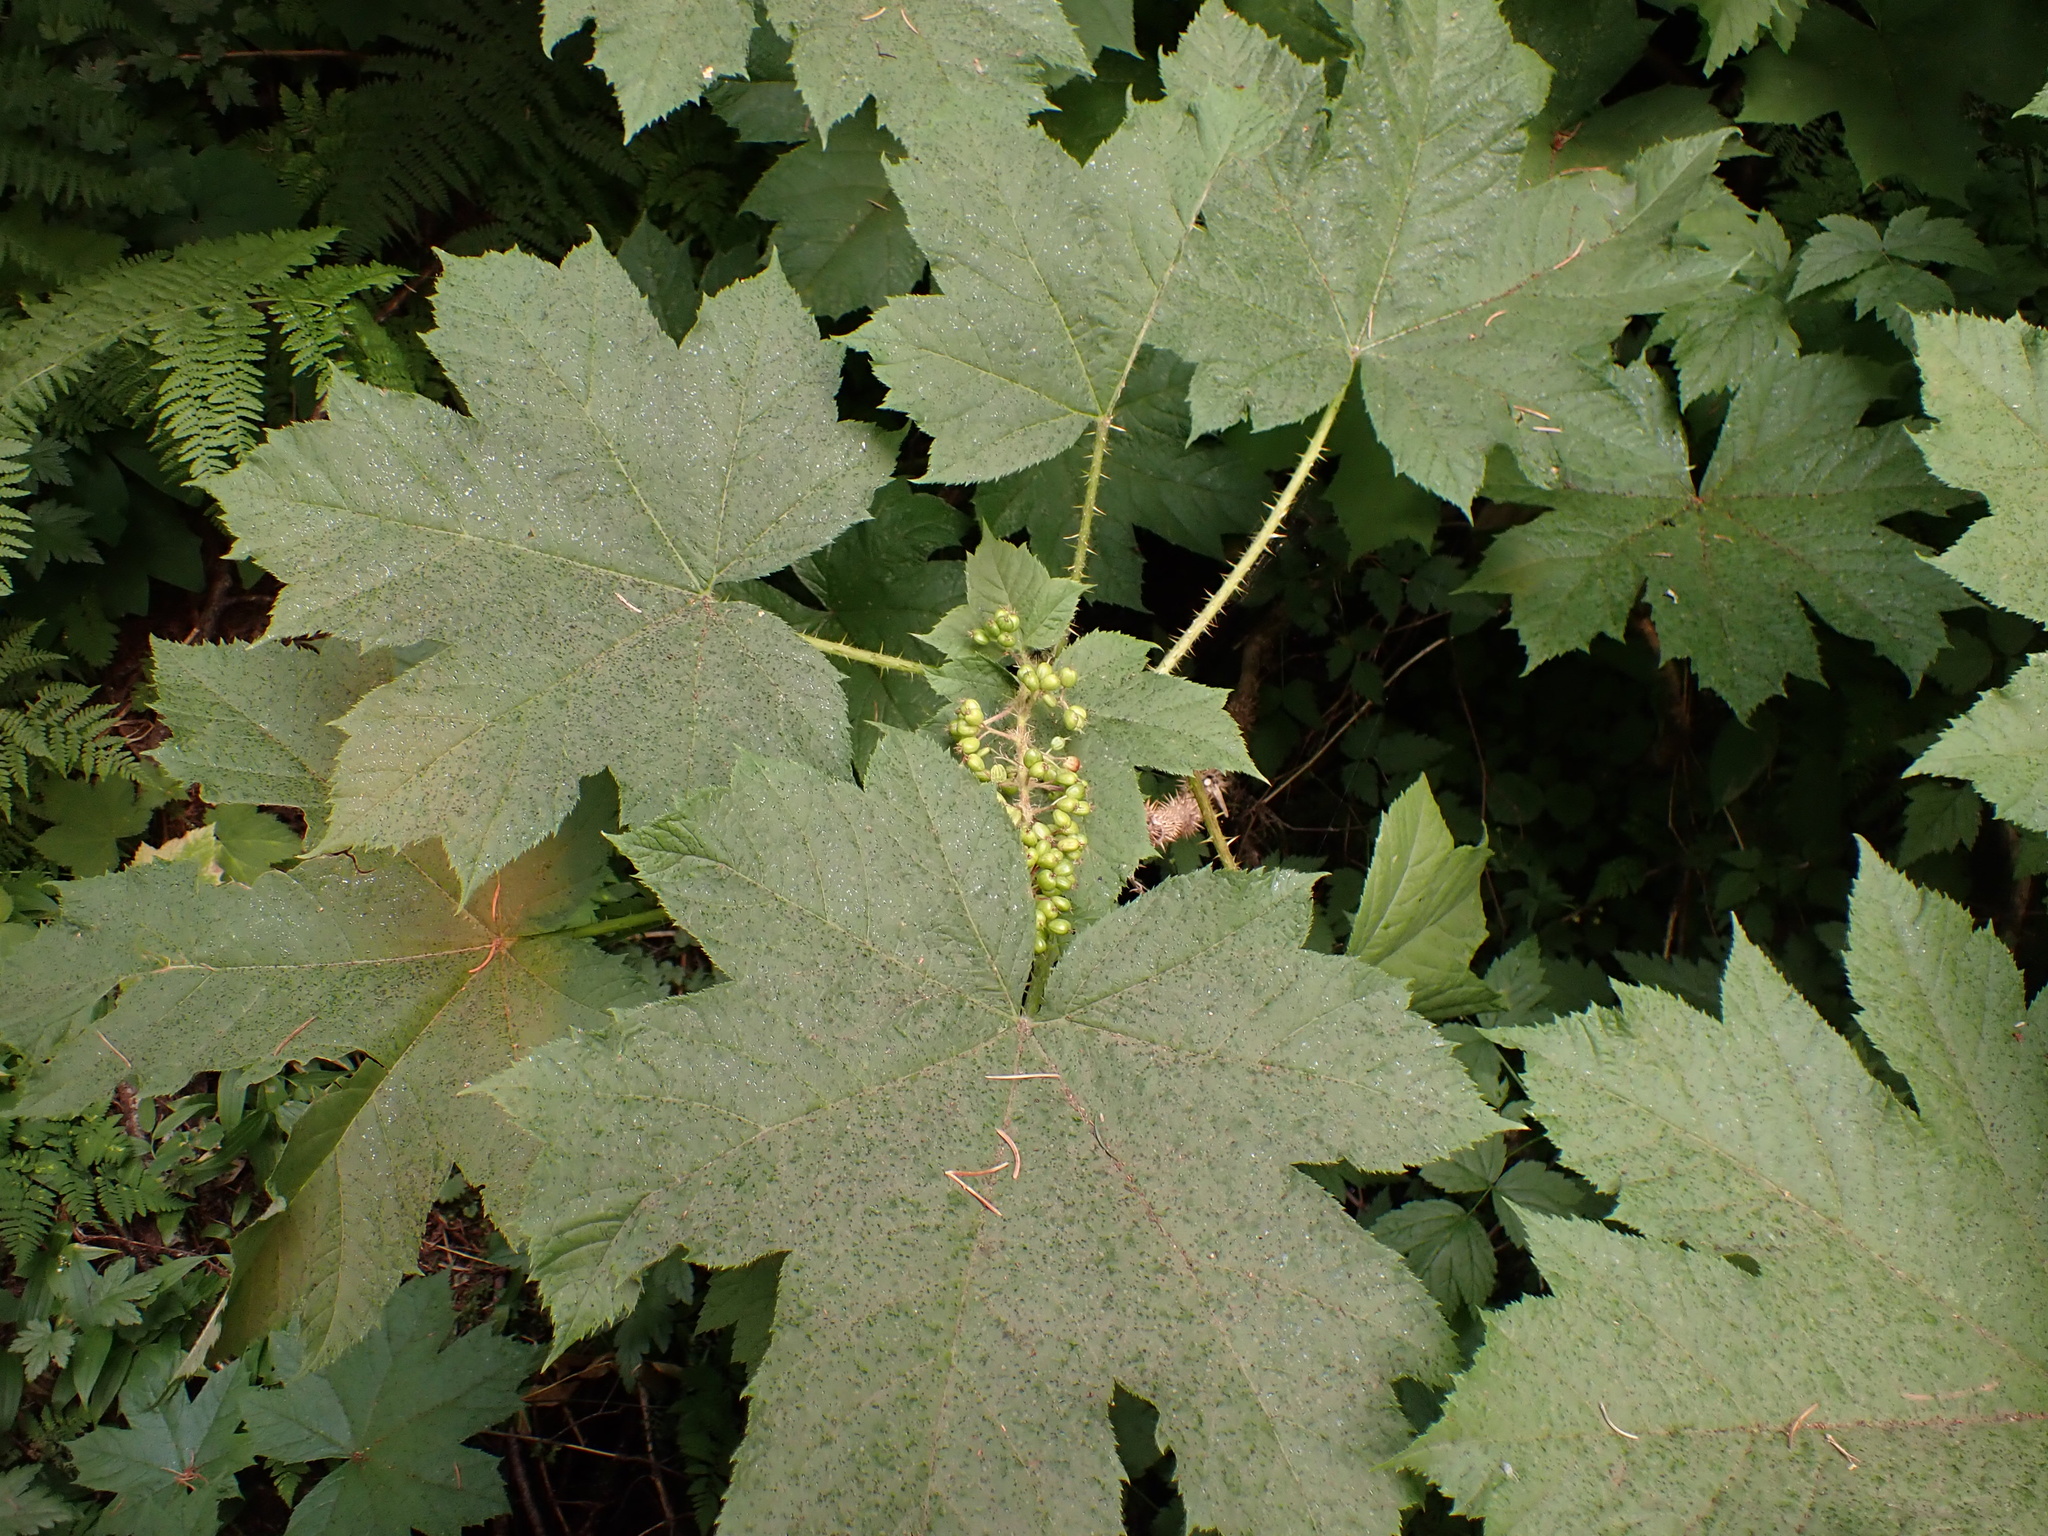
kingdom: Plantae
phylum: Tracheophyta
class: Magnoliopsida
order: Apiales
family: Araliaceae
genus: Oplopanax
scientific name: Oplopanax horridus
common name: Devil's walking-stick
